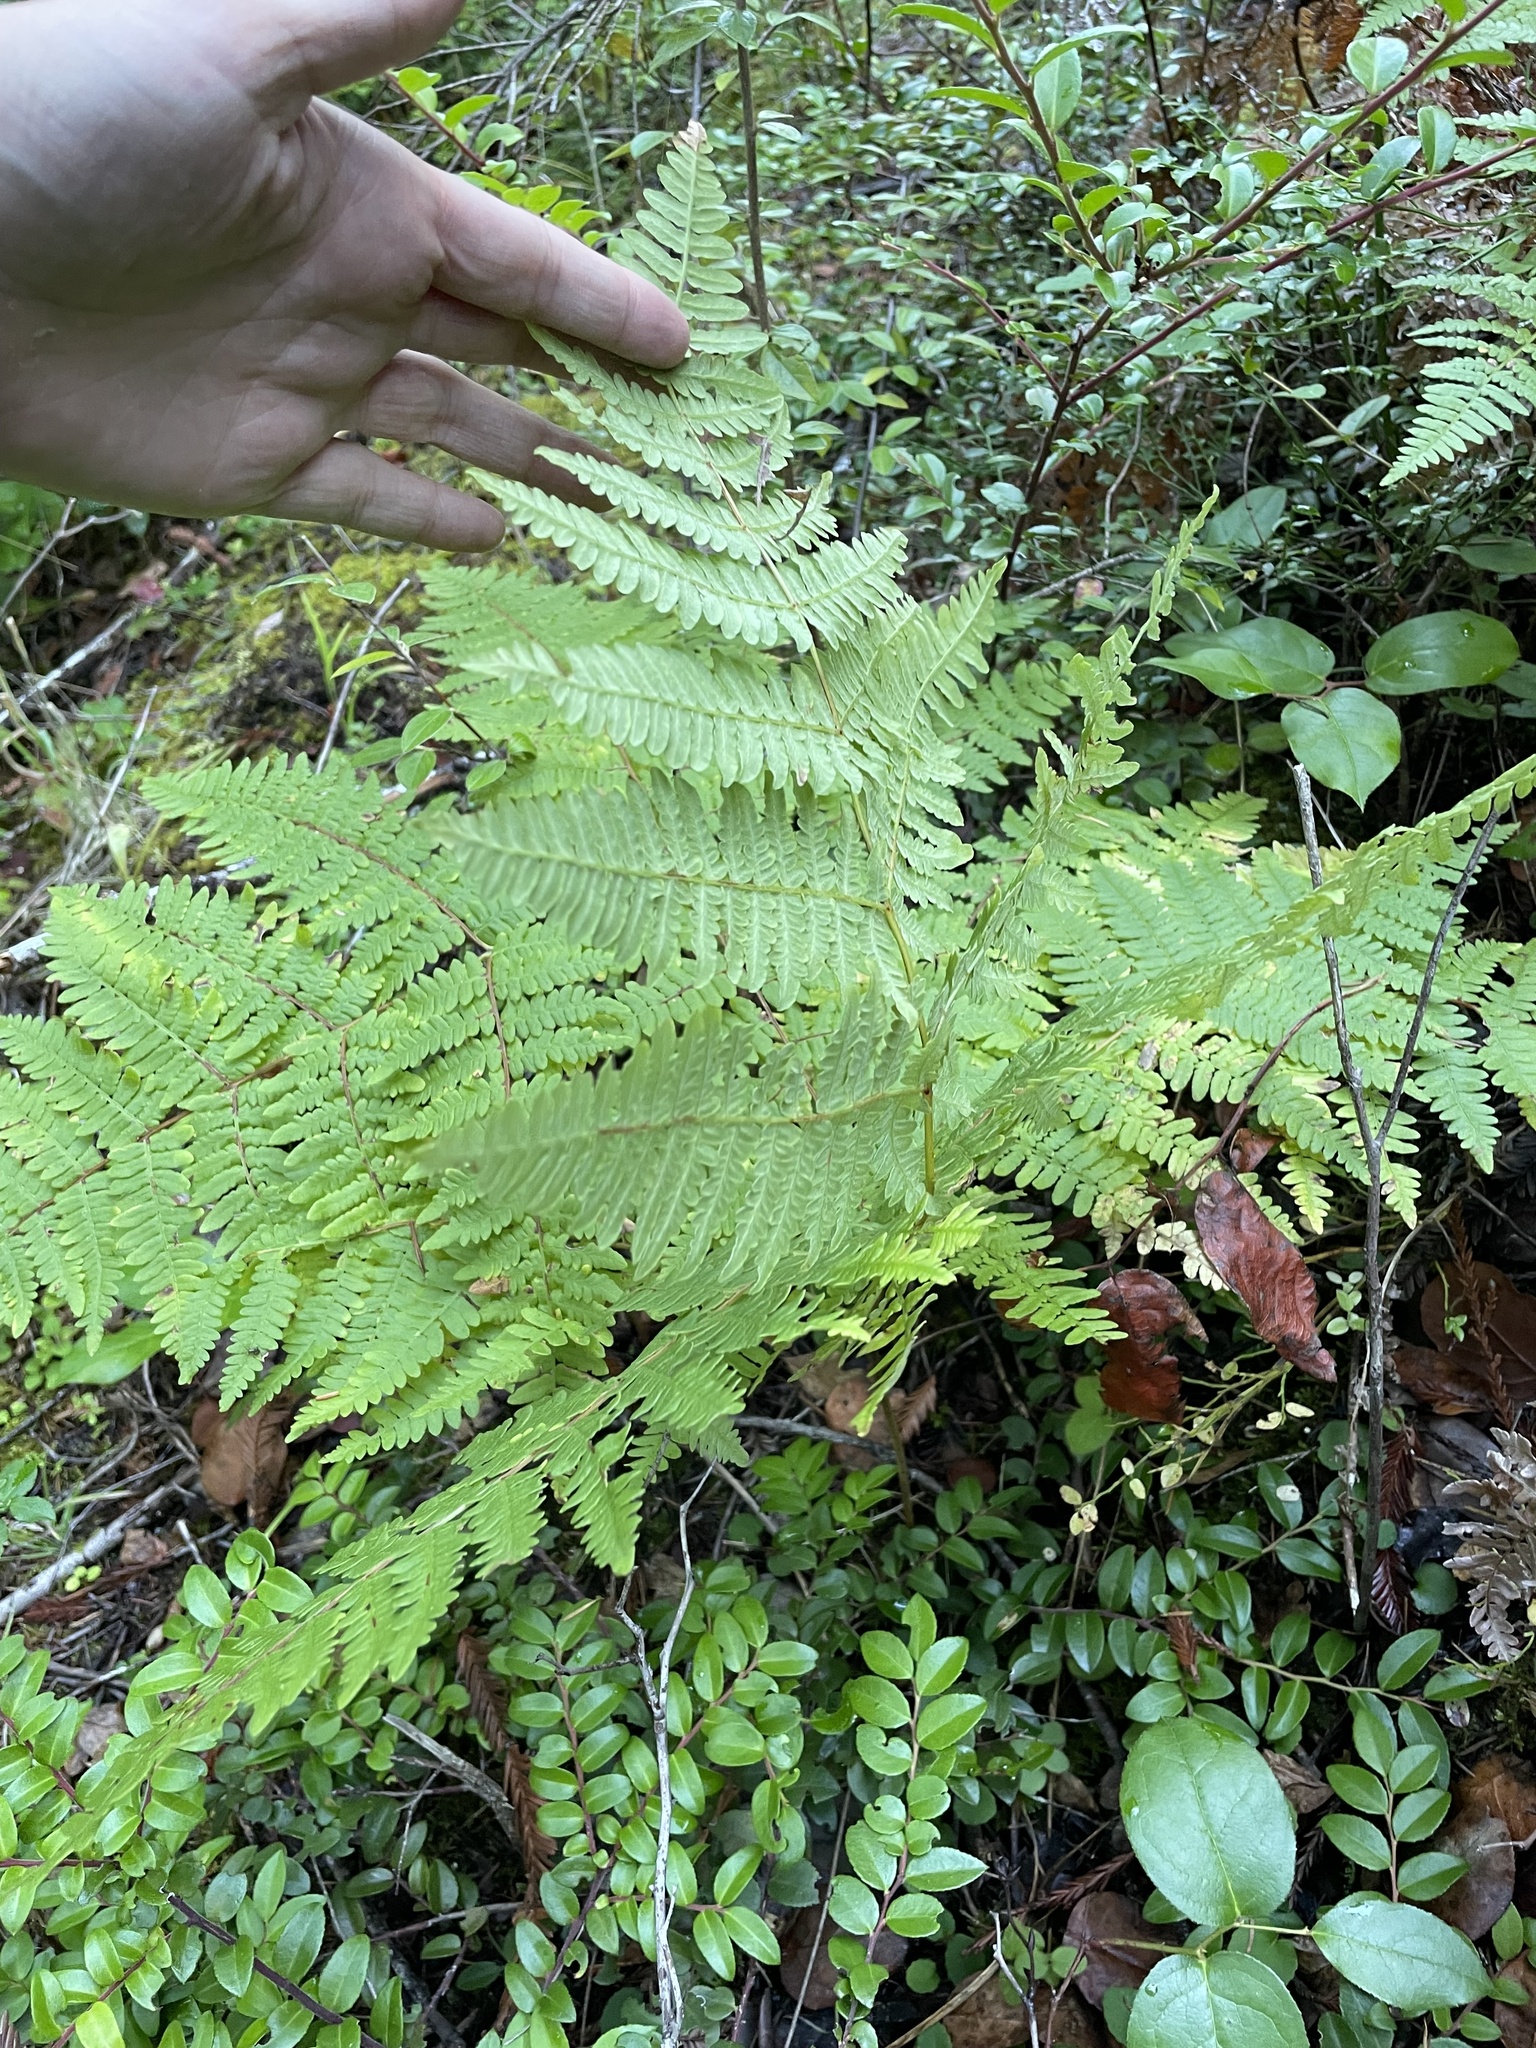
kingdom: Plantae
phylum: Tracheophyta
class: Polypodiopsida
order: Polypodiales
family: Dennstaedtiaceae
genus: Pteridium
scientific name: Pteridium aquilinum
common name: Bracken
